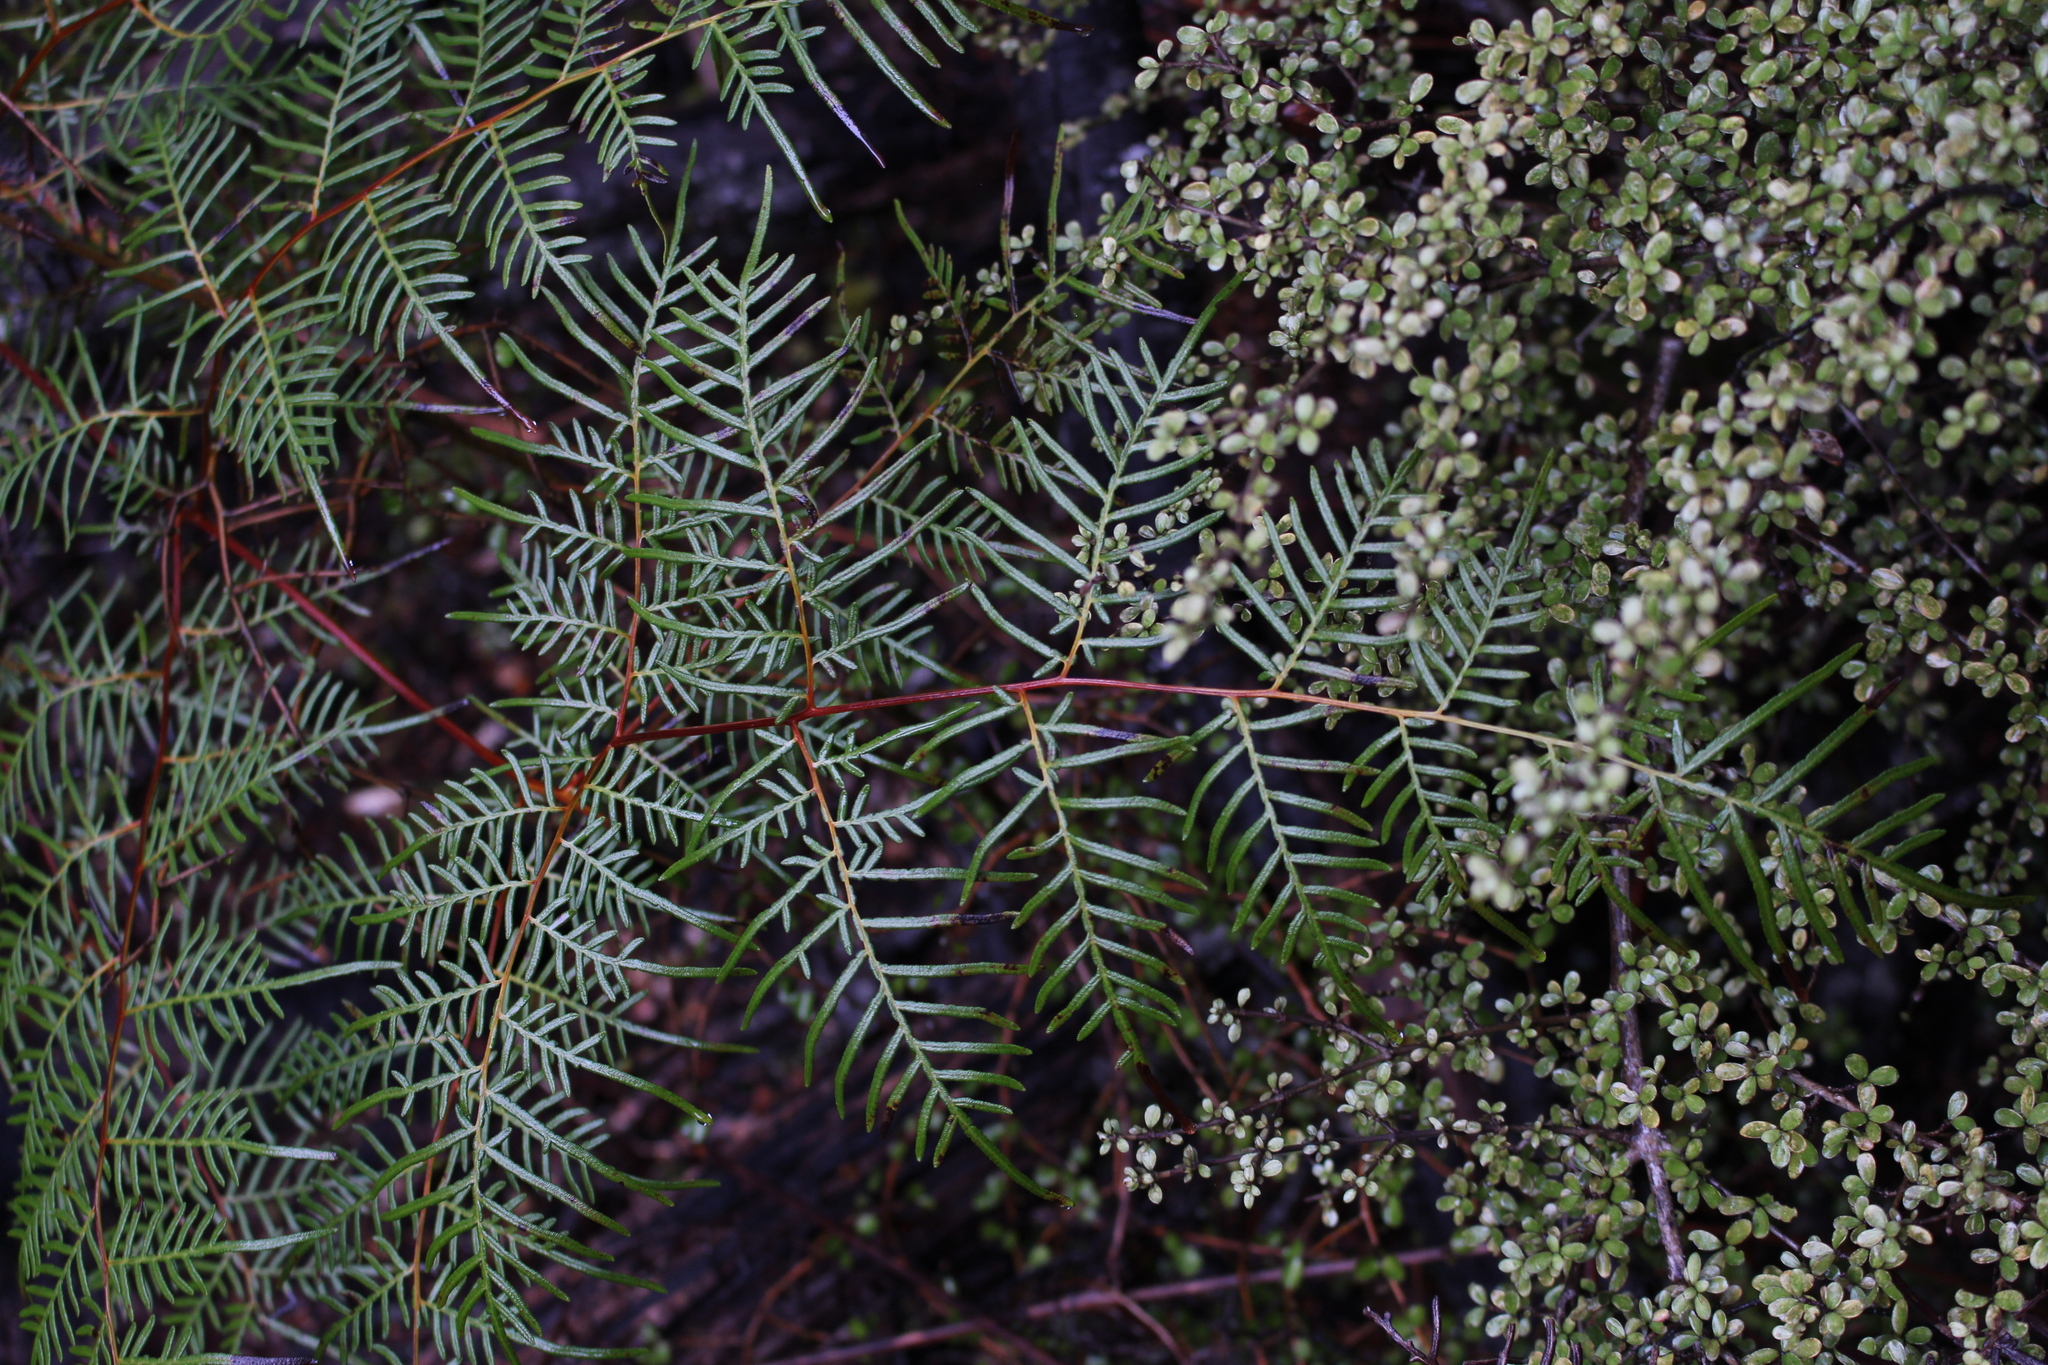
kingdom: Plantae
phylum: Tracheophyta
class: Polypodiopsida
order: Polypodiales
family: Dennstaedtiaceae
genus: Pteridium
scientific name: Pteridium esculentum
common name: Bracken fern
